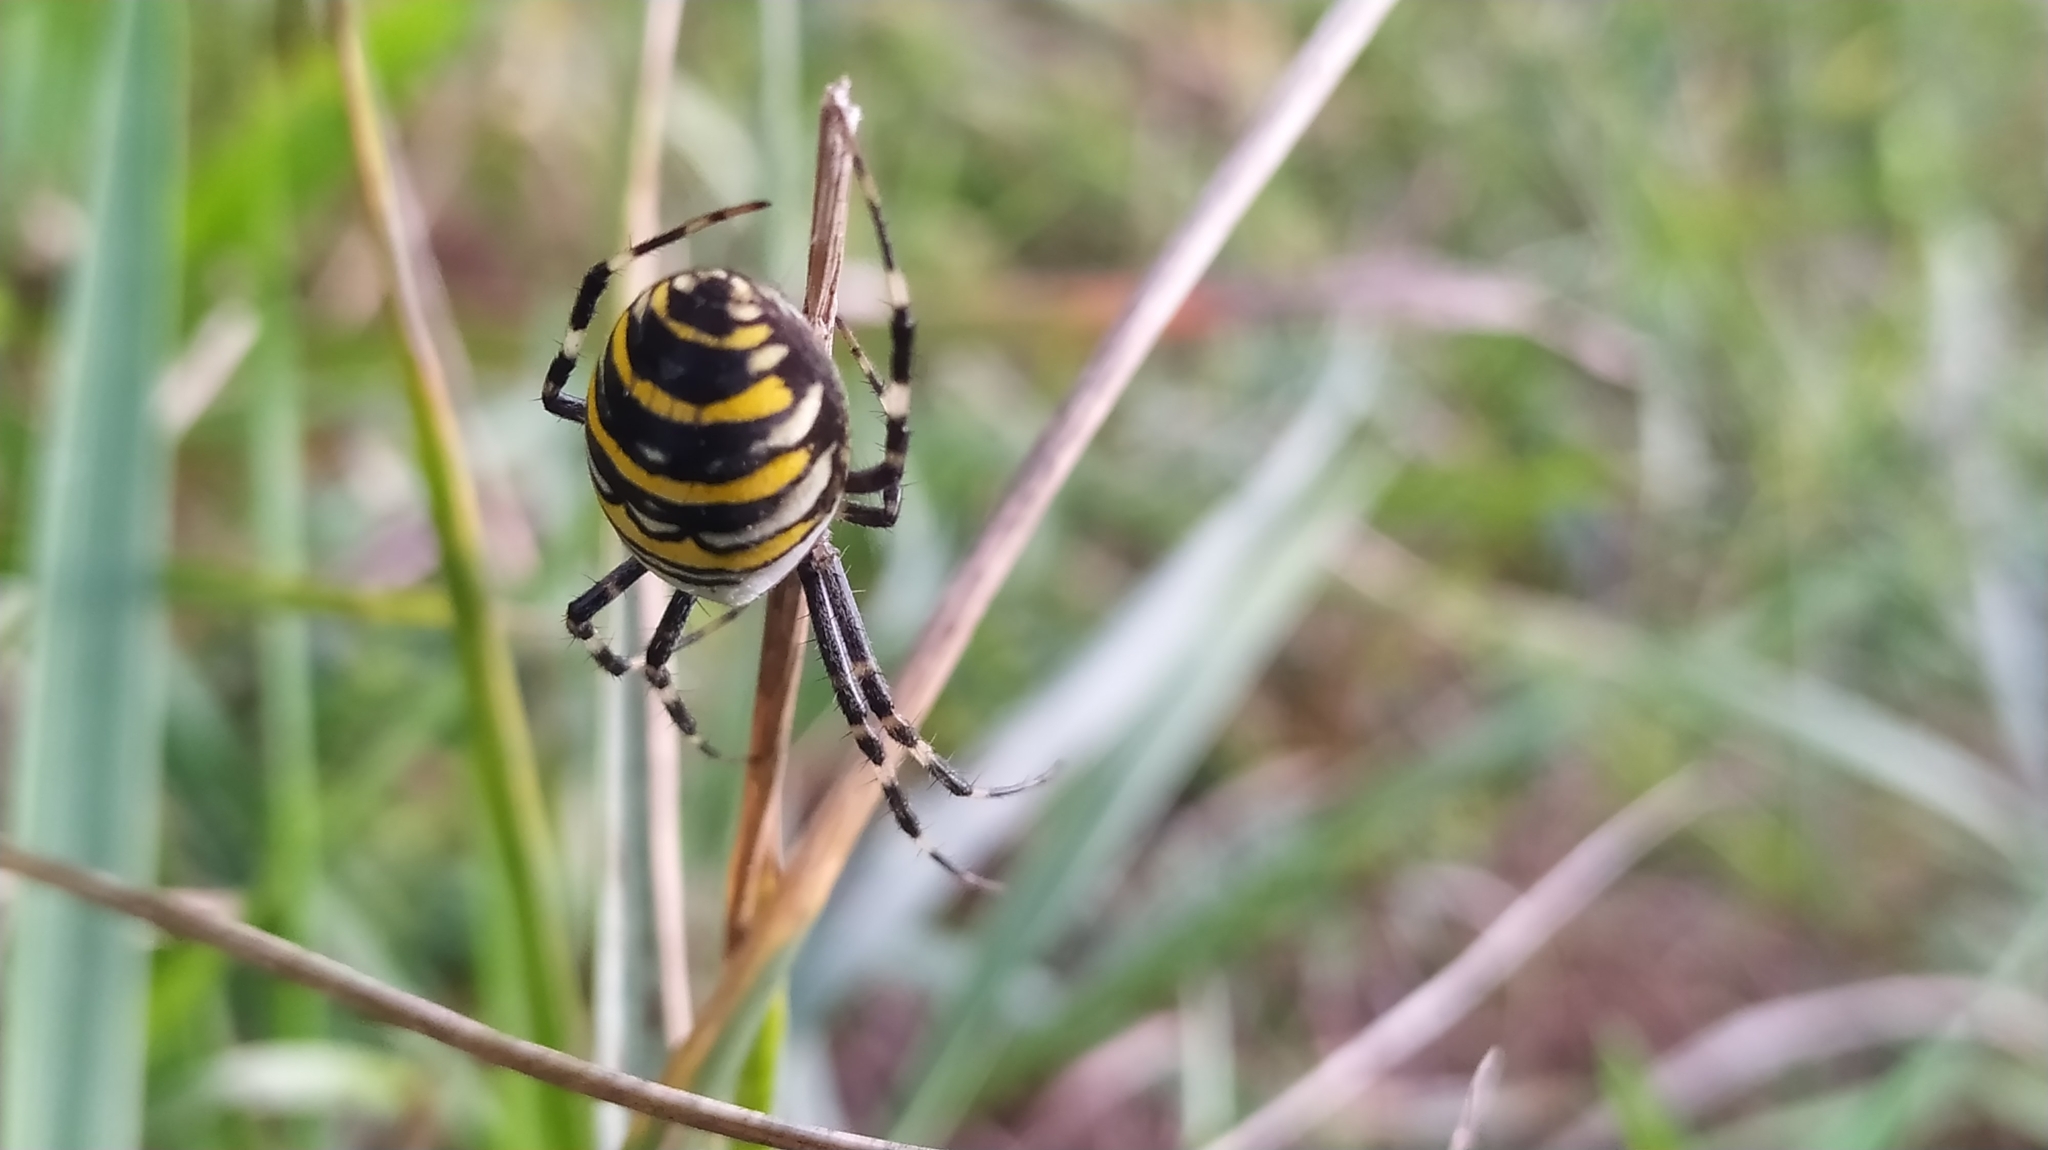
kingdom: Animalia
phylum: Arthropoda
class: Arachnida
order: Araneae
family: Araneidae
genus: Argiope
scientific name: Argiope bruennichi
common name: Wasp spider
